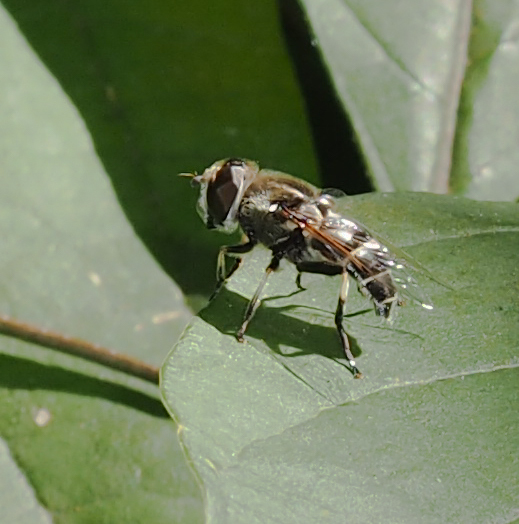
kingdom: Animalia
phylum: Arthropoda
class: Insecta
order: Diptera
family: Syrphidae
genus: Eristalis
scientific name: Eristalis dimidiata
